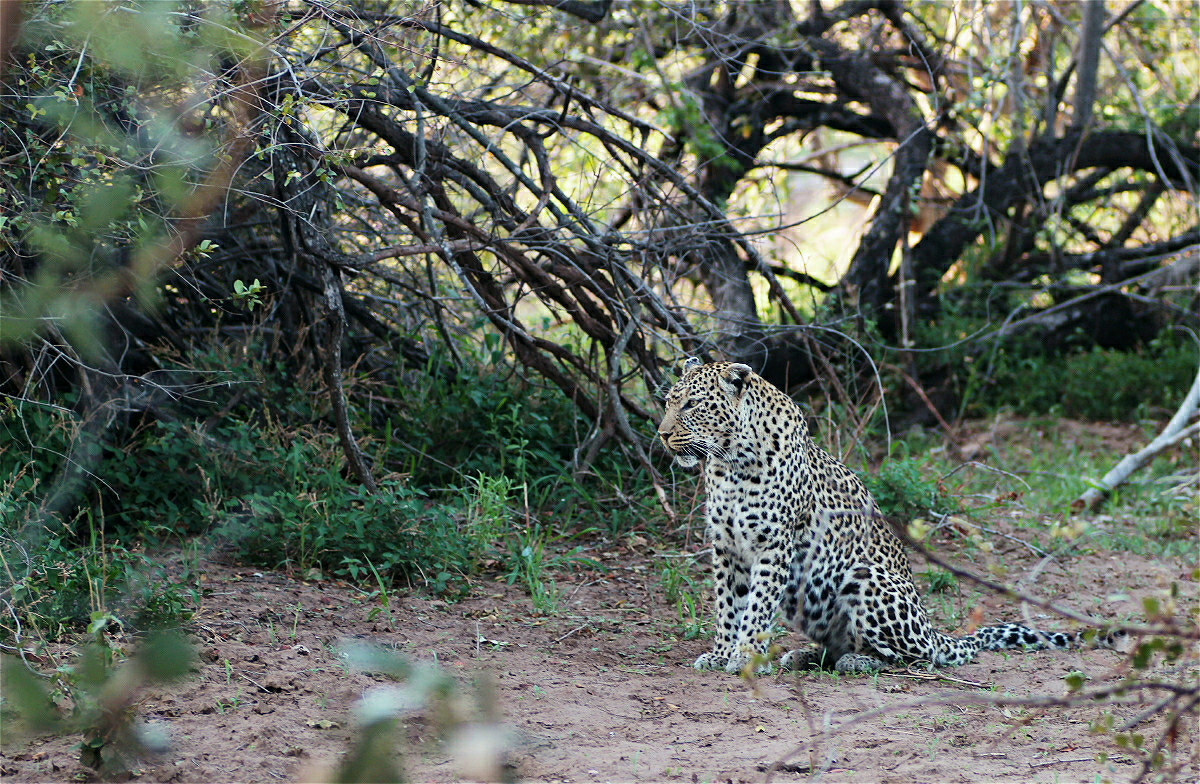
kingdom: Animalia
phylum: Chordata
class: Mammalia
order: Carnivora
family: Felidae
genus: Panthera
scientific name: Panthera pardus
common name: Leopard
